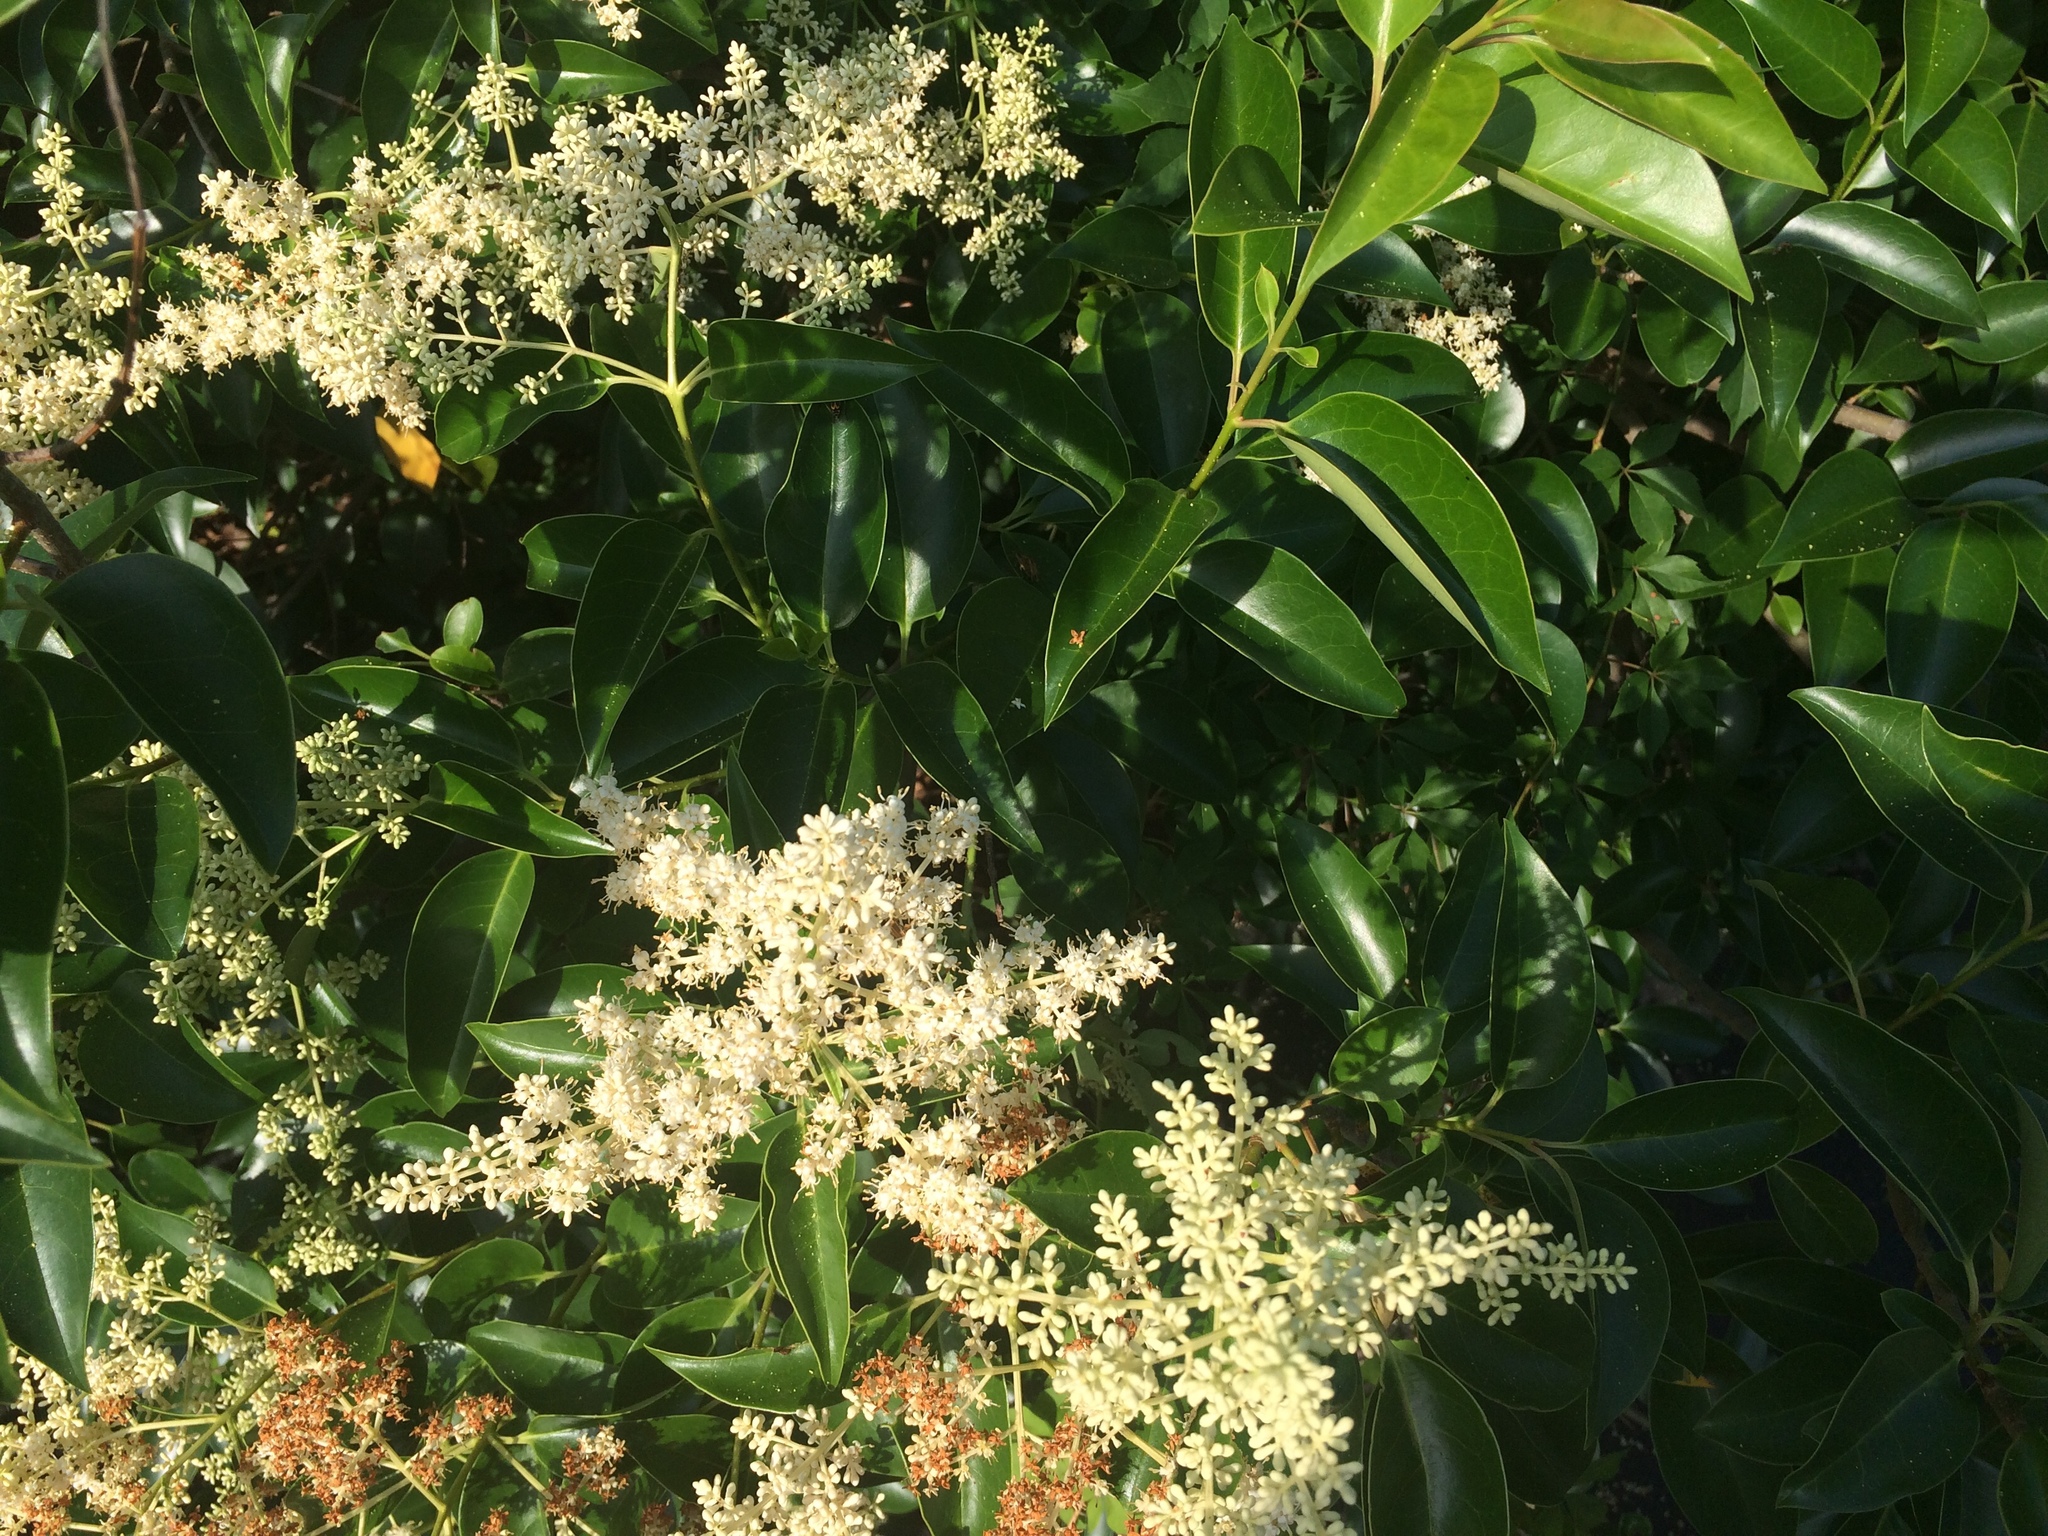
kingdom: Plantae
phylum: Tracheophyta
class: Magnoliopsida
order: Lamiales
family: Oleaceae
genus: Ligustrum
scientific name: Ligustrum lucidum
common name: Glossy privet
